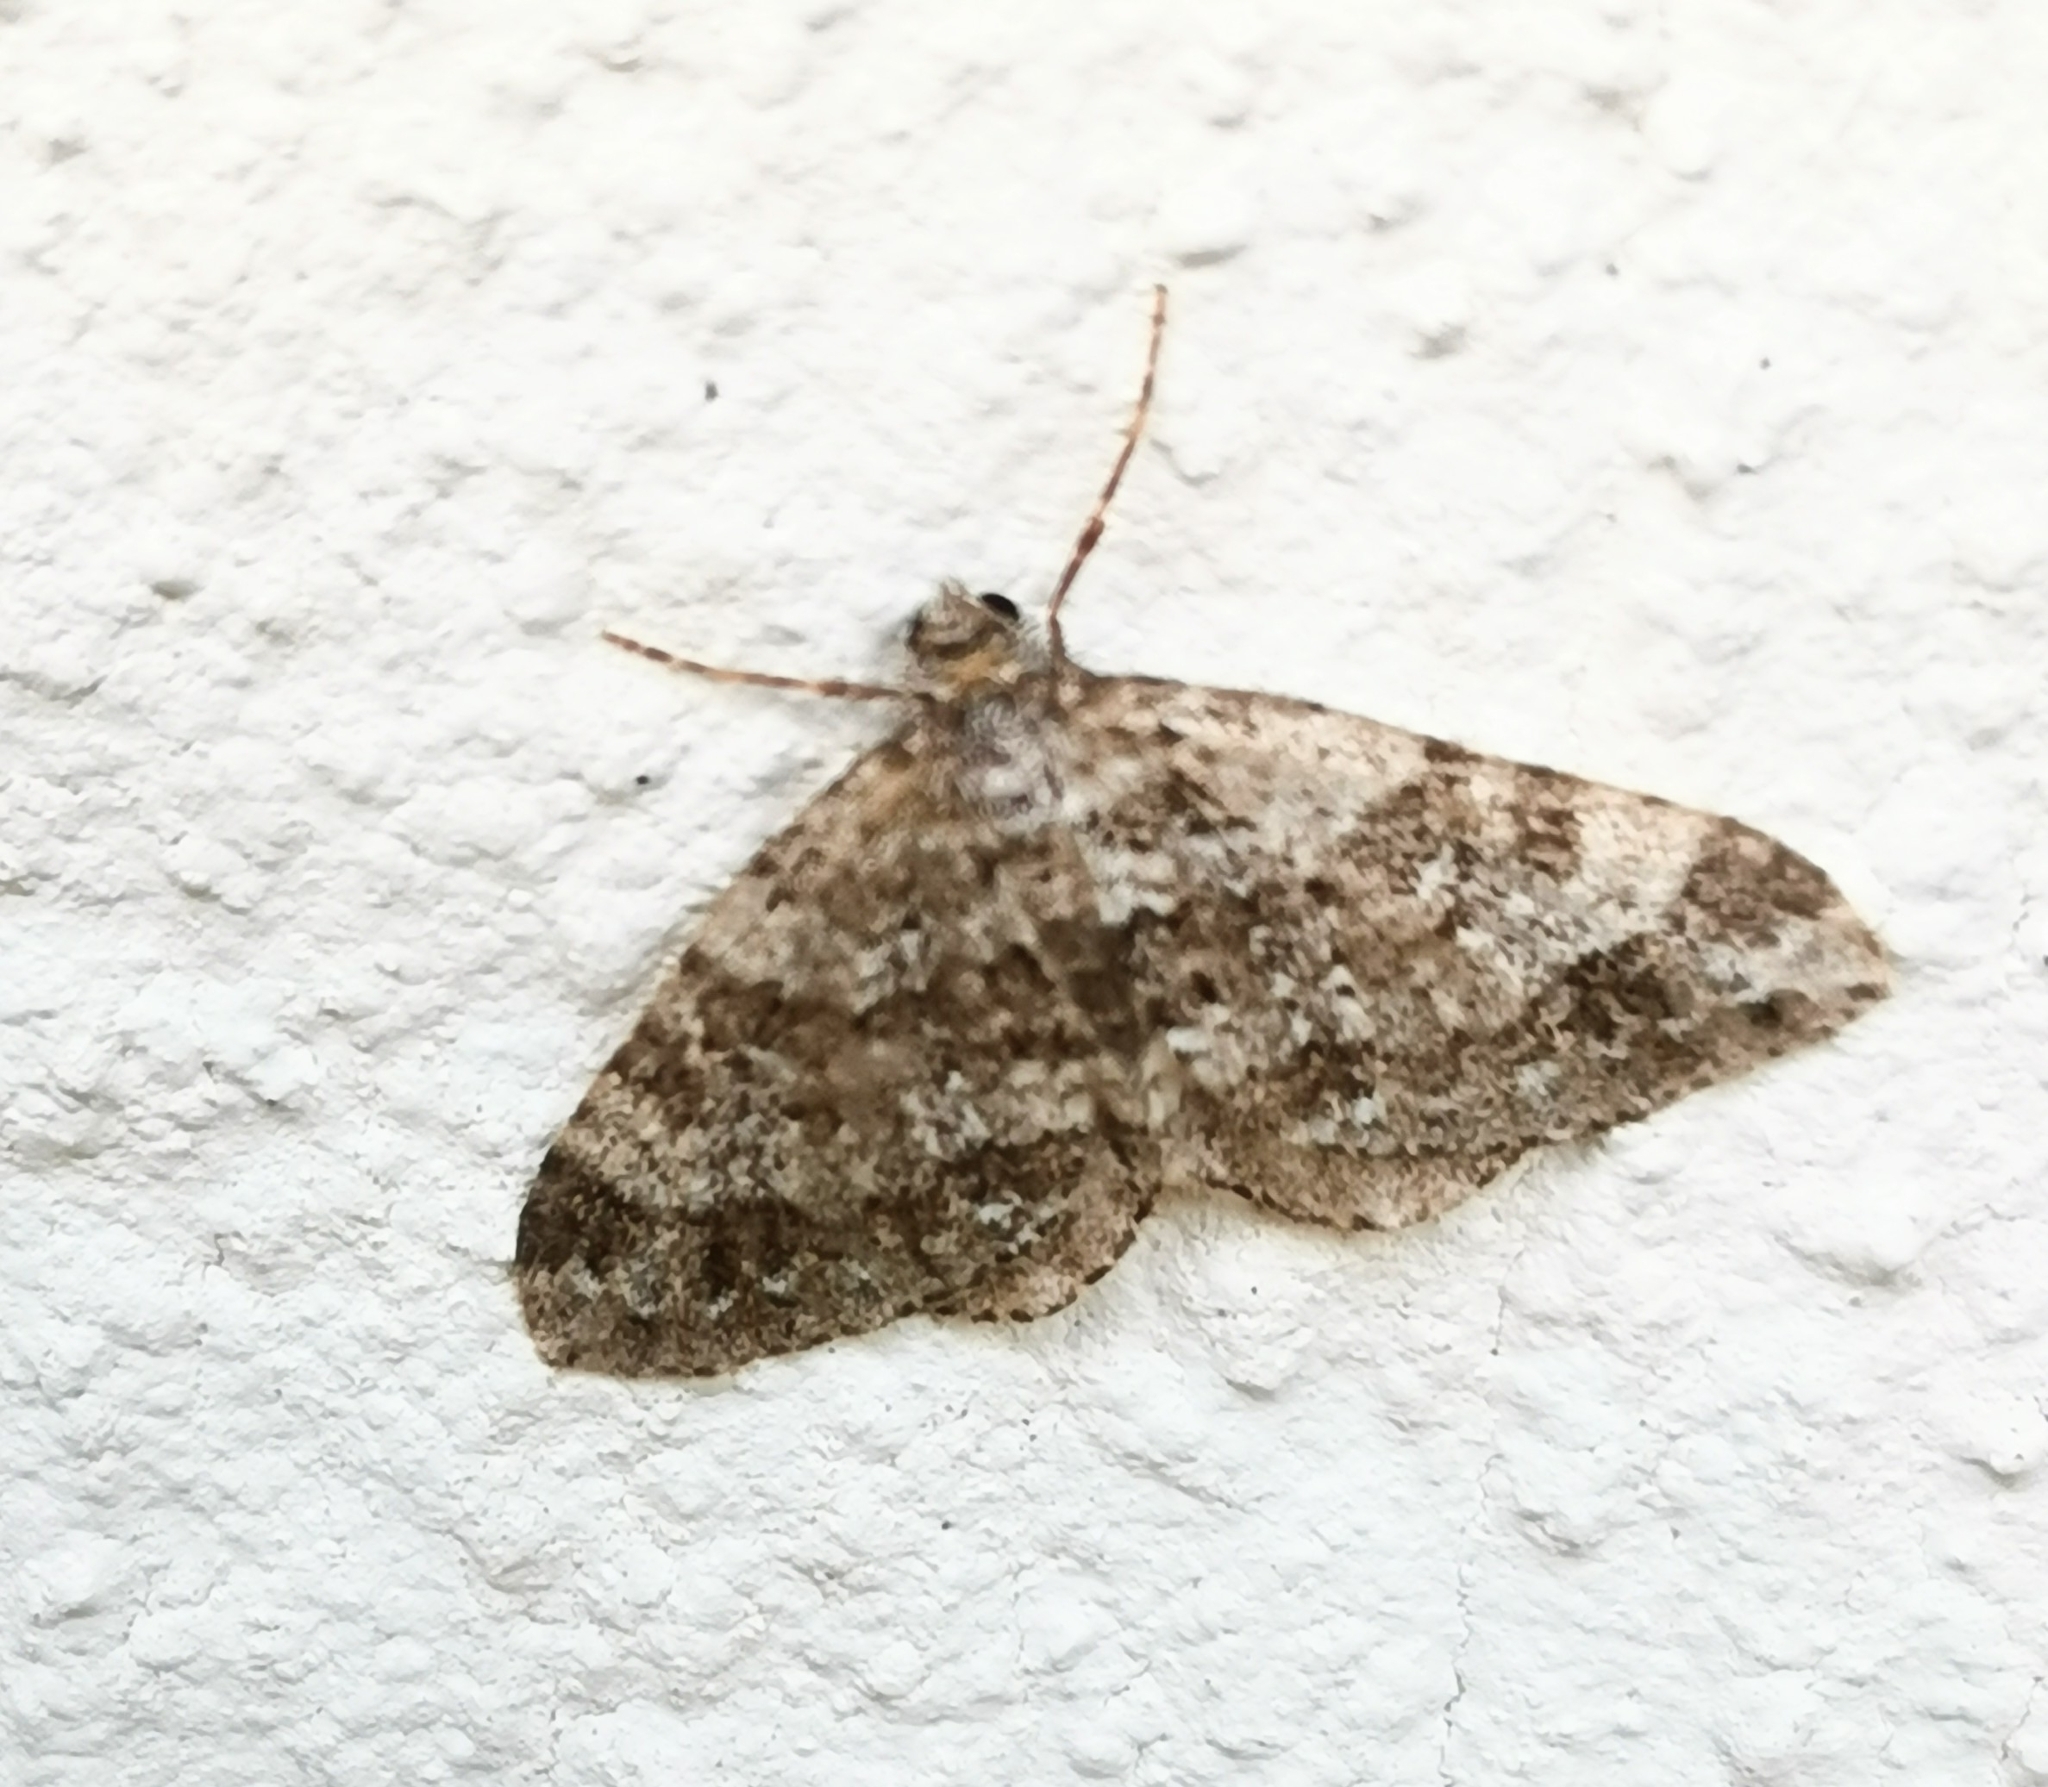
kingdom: Animalia
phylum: Arthropoda
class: Insecta
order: Lepidoptera
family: Geometridae
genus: Perizoma
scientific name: Perizoma didymata
